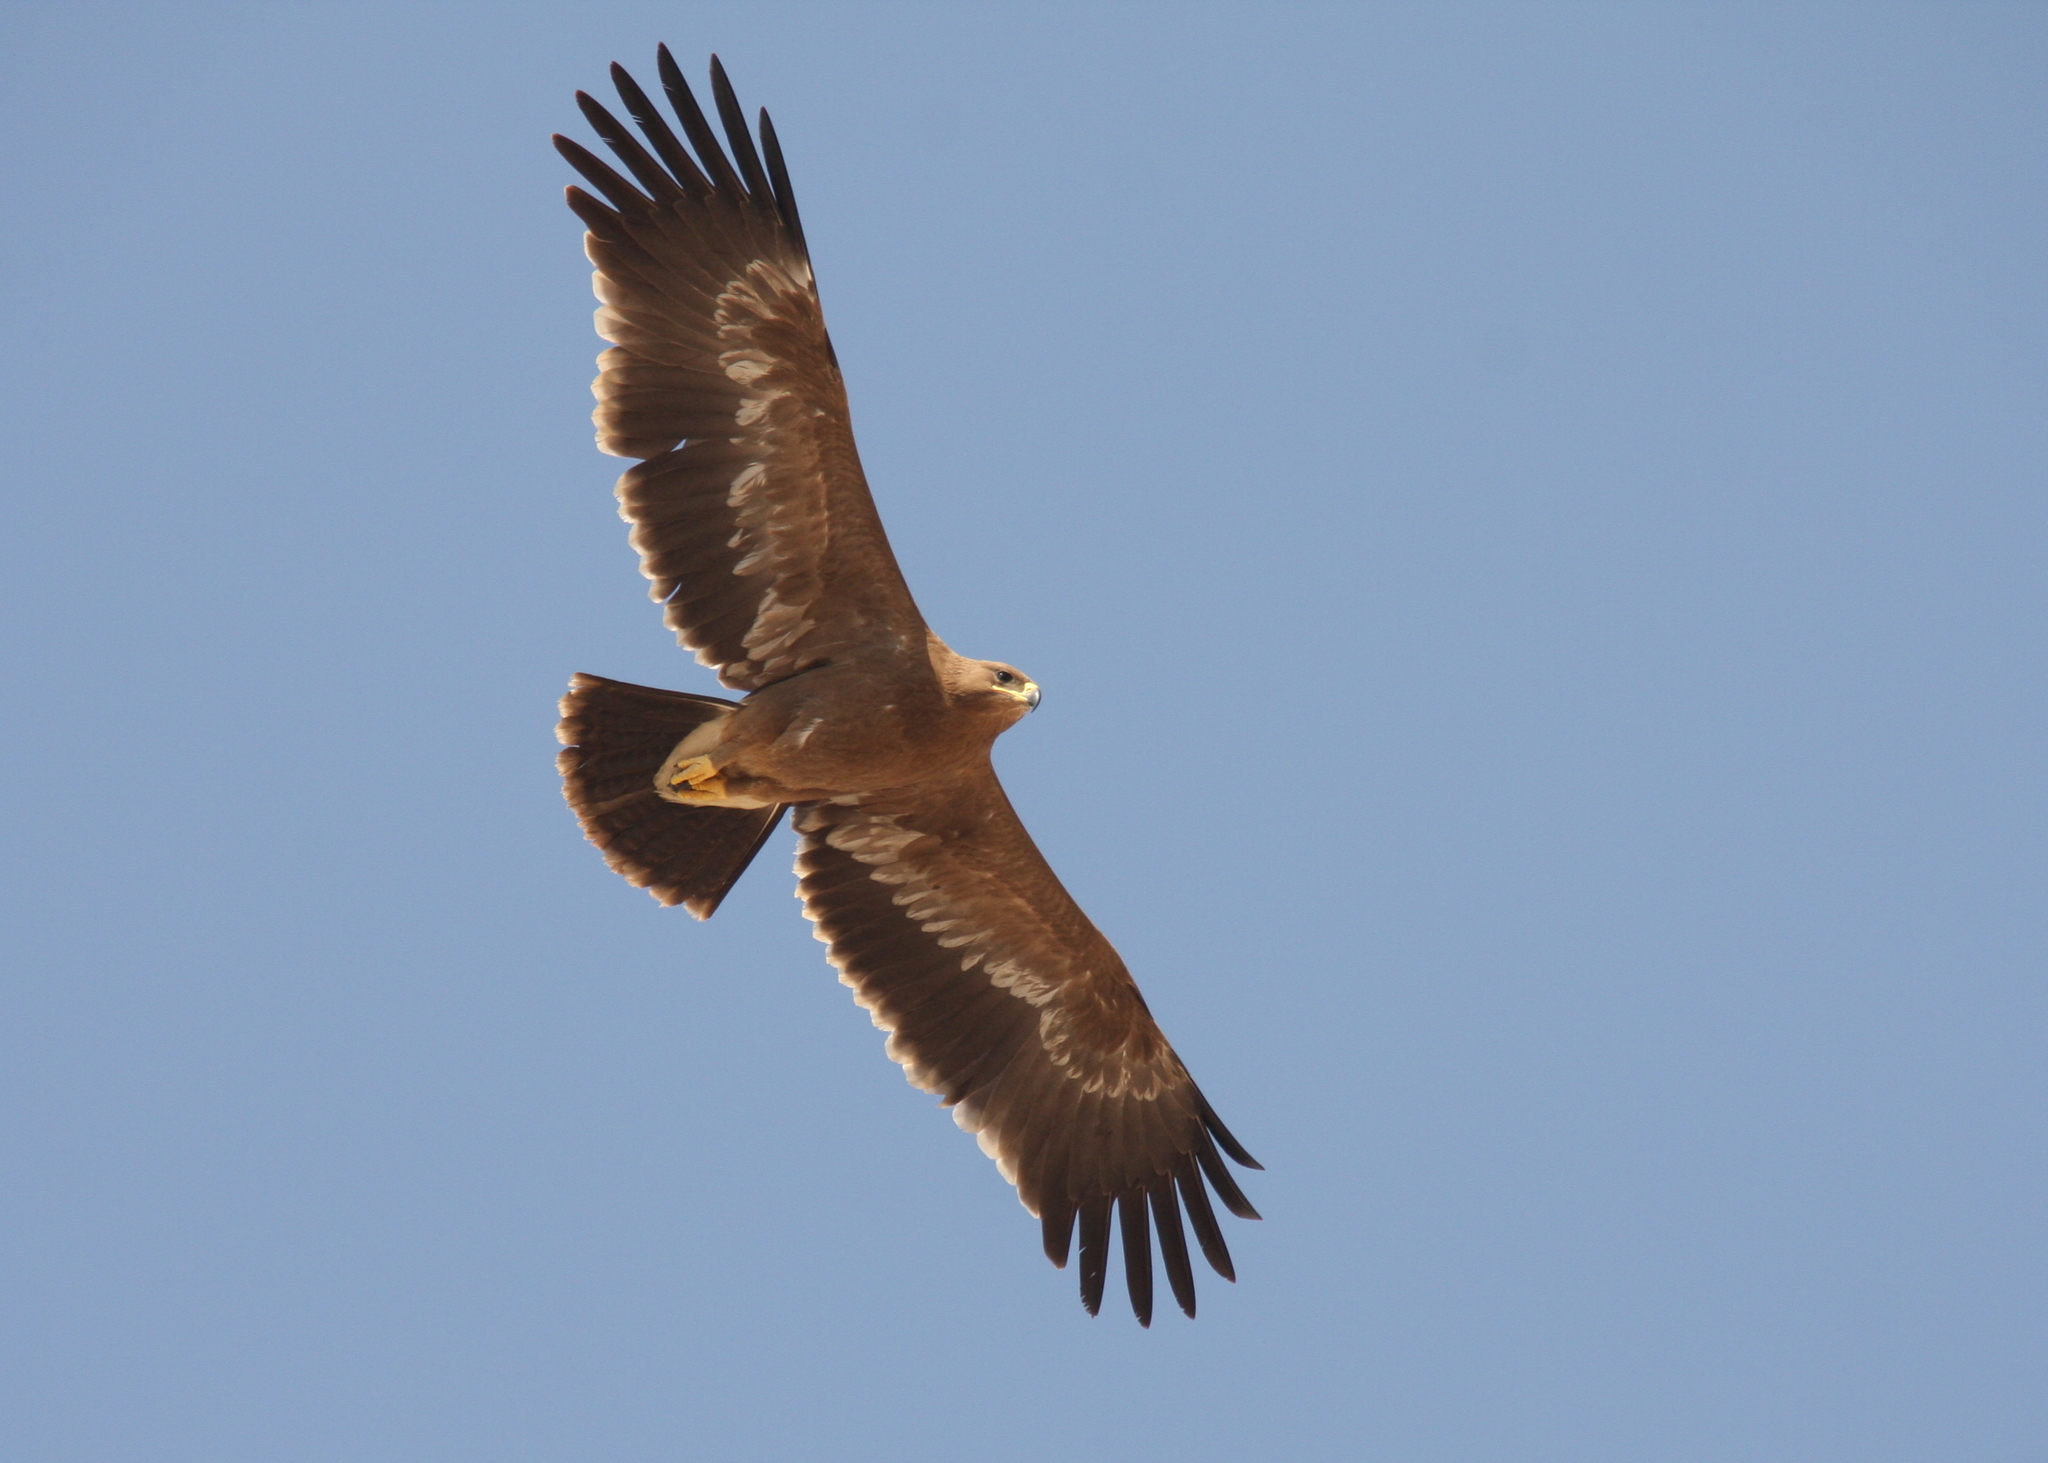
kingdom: Animalia
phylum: Chordata
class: Aves
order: Accipitriformes
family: Accipitridae
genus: Aquila
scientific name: Aquila nipalensis
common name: Steppe eagle
